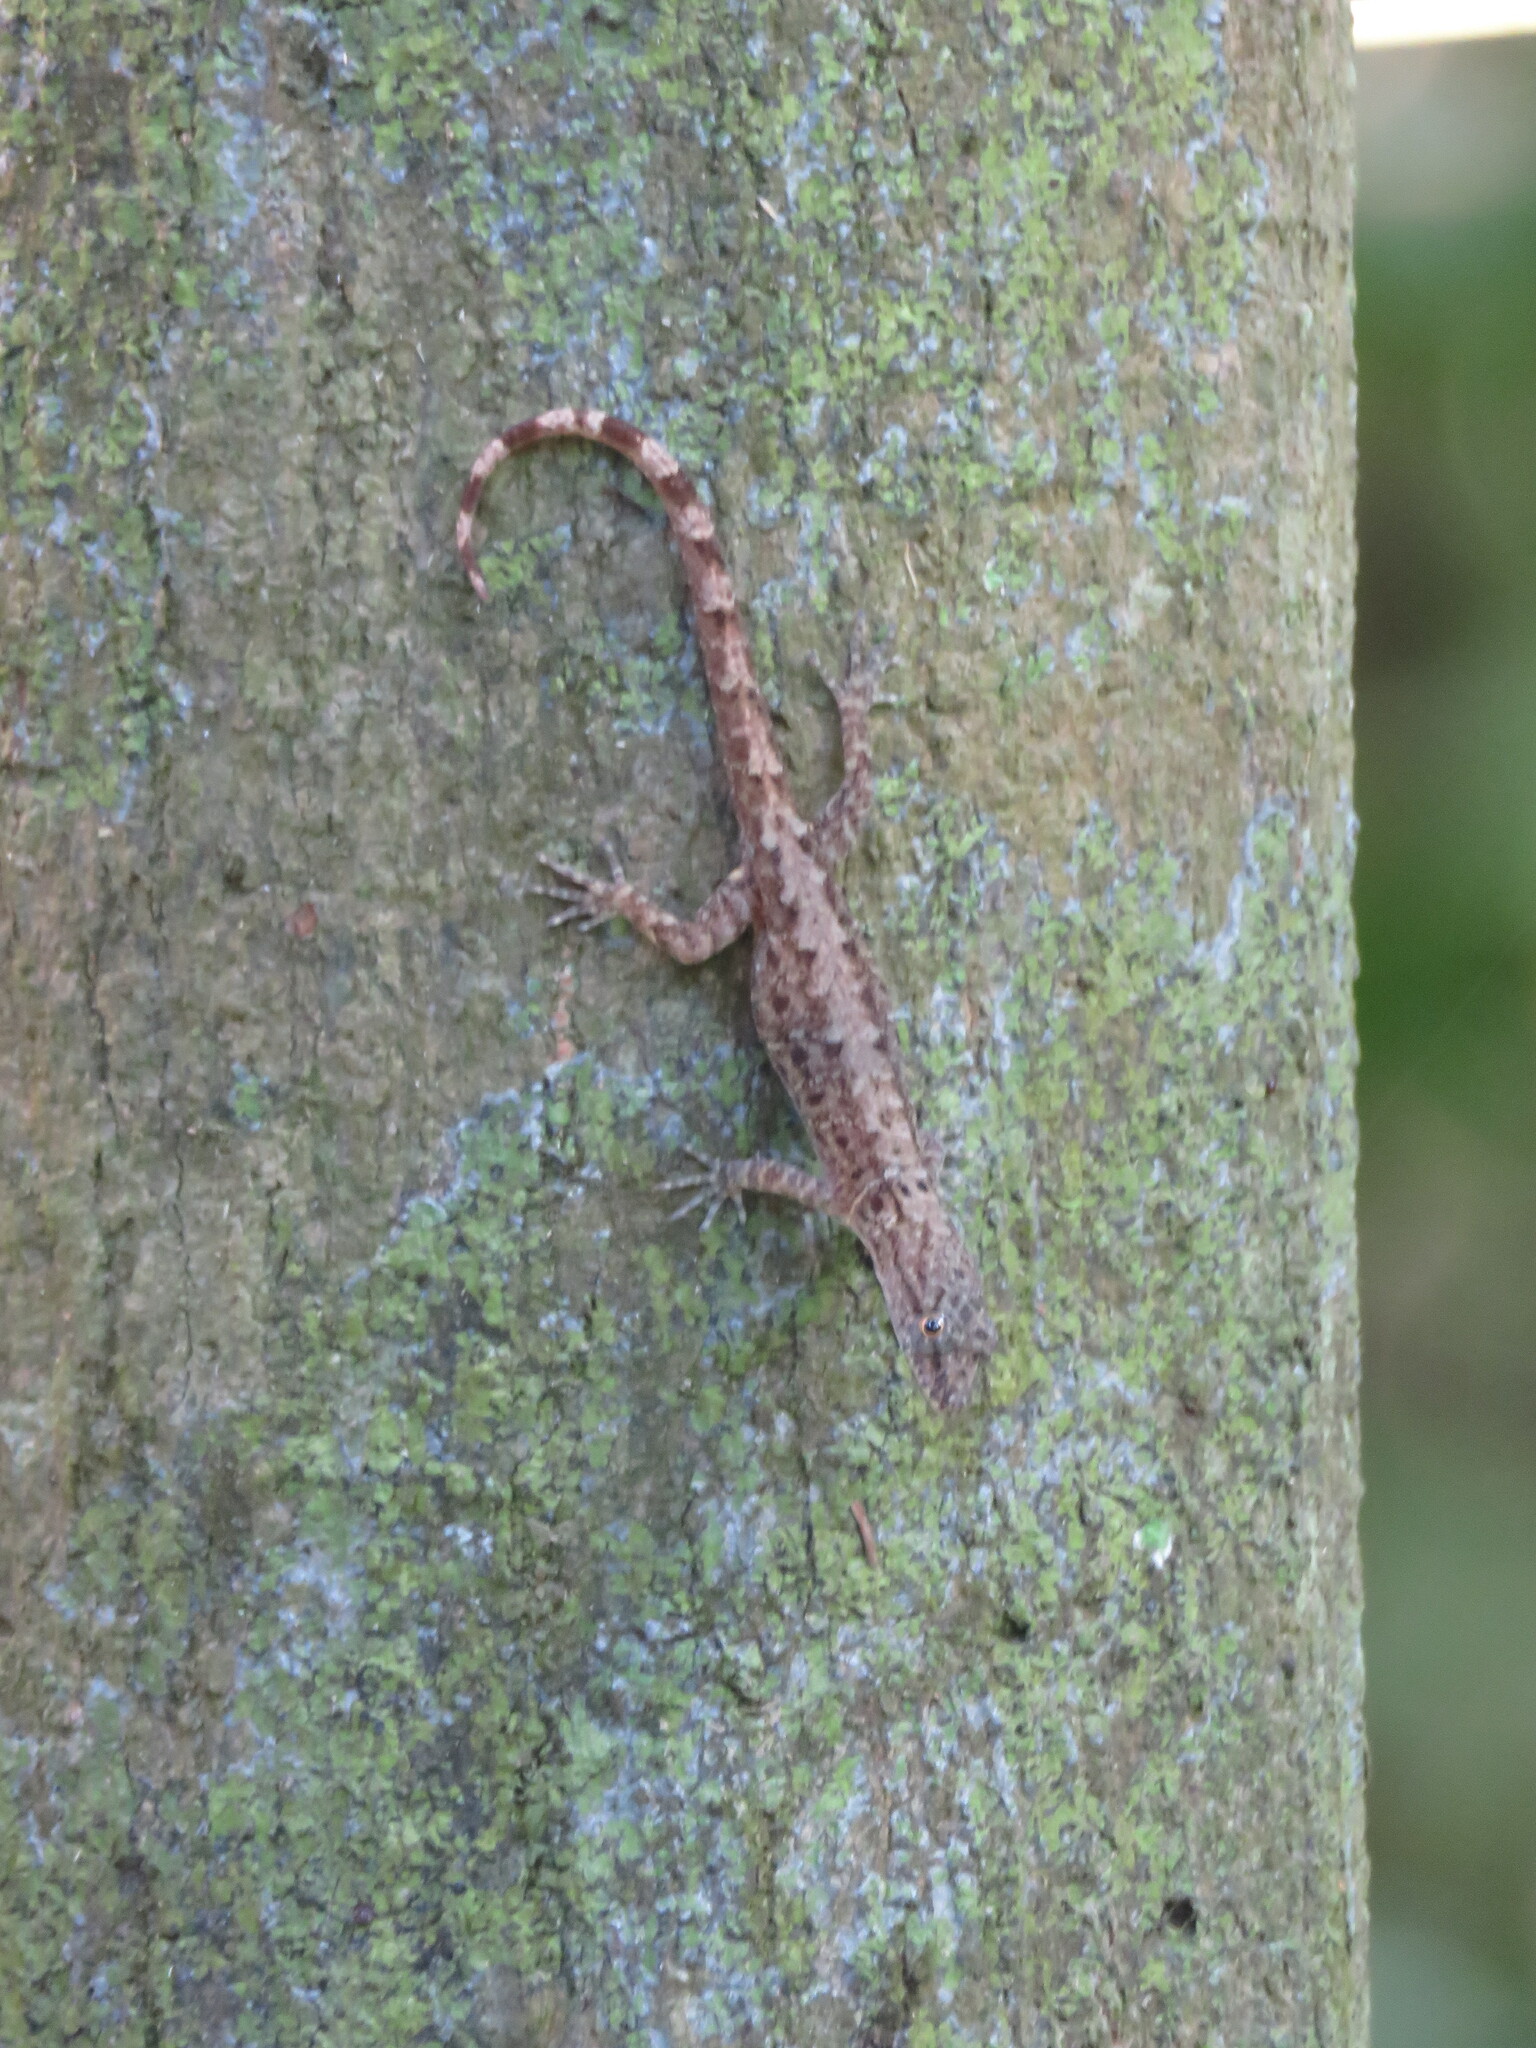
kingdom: Animalia
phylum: Chordata
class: Squamata
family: Sphaerodactylidae
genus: Gonatodes
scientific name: Gonatodes humeralis
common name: South american clawed gecko
